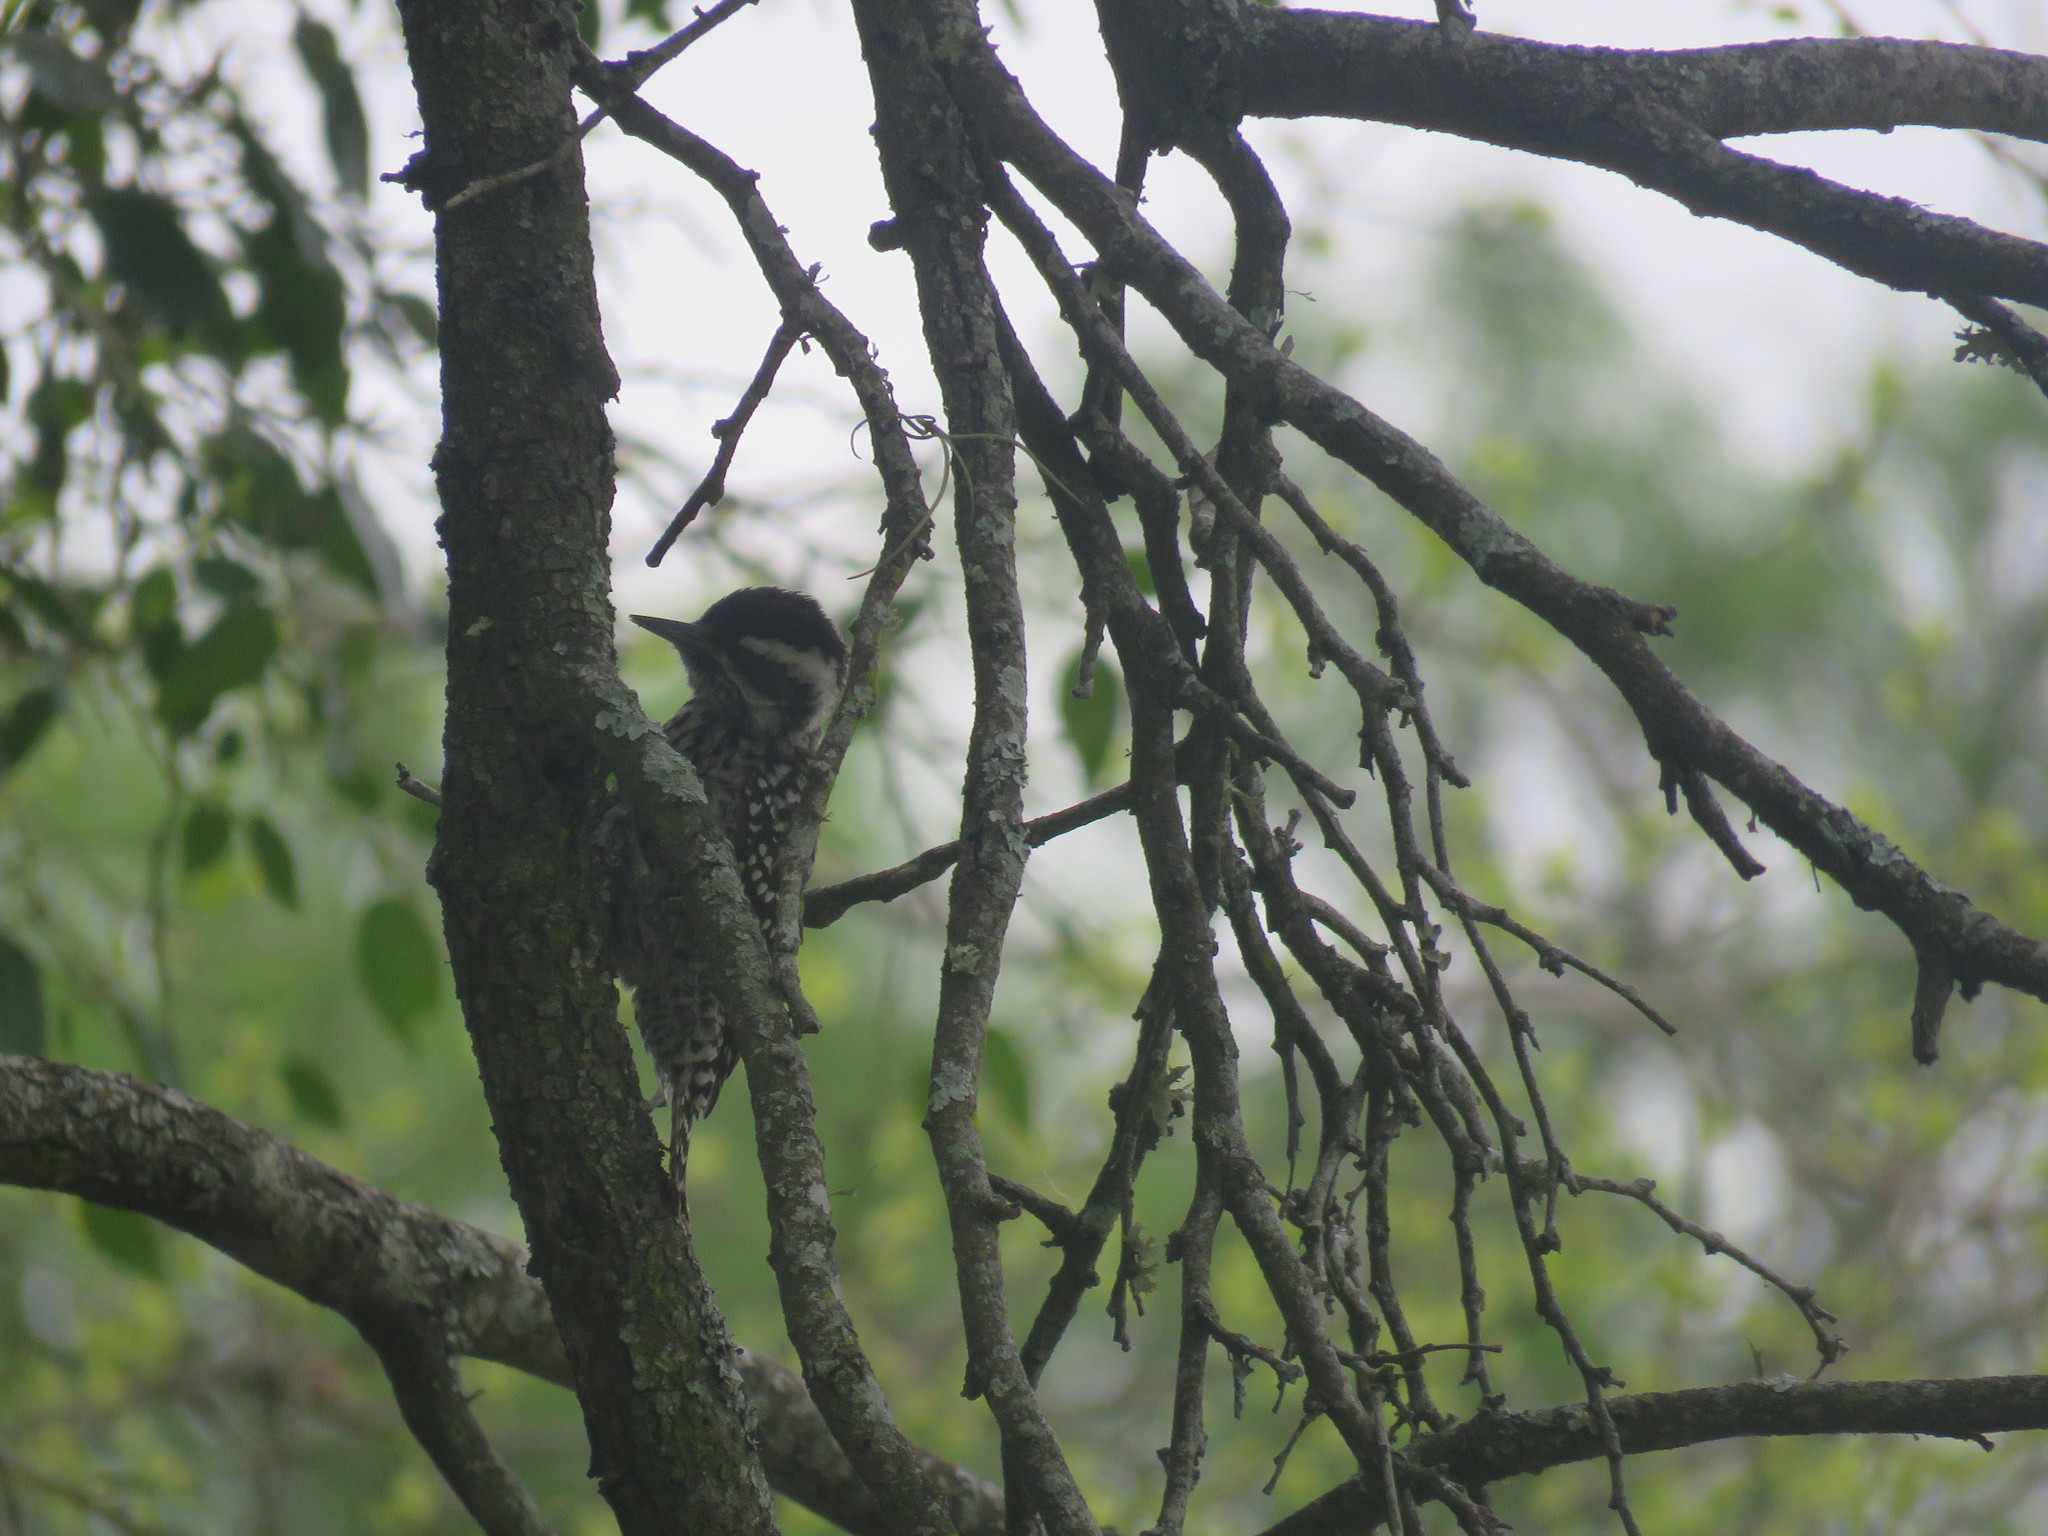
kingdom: Animalia
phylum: Chordata
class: Aves
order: Piciformes
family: Picidae
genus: Veniliornis
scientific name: Veniliornis mixtus
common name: Checkered woodpecker
